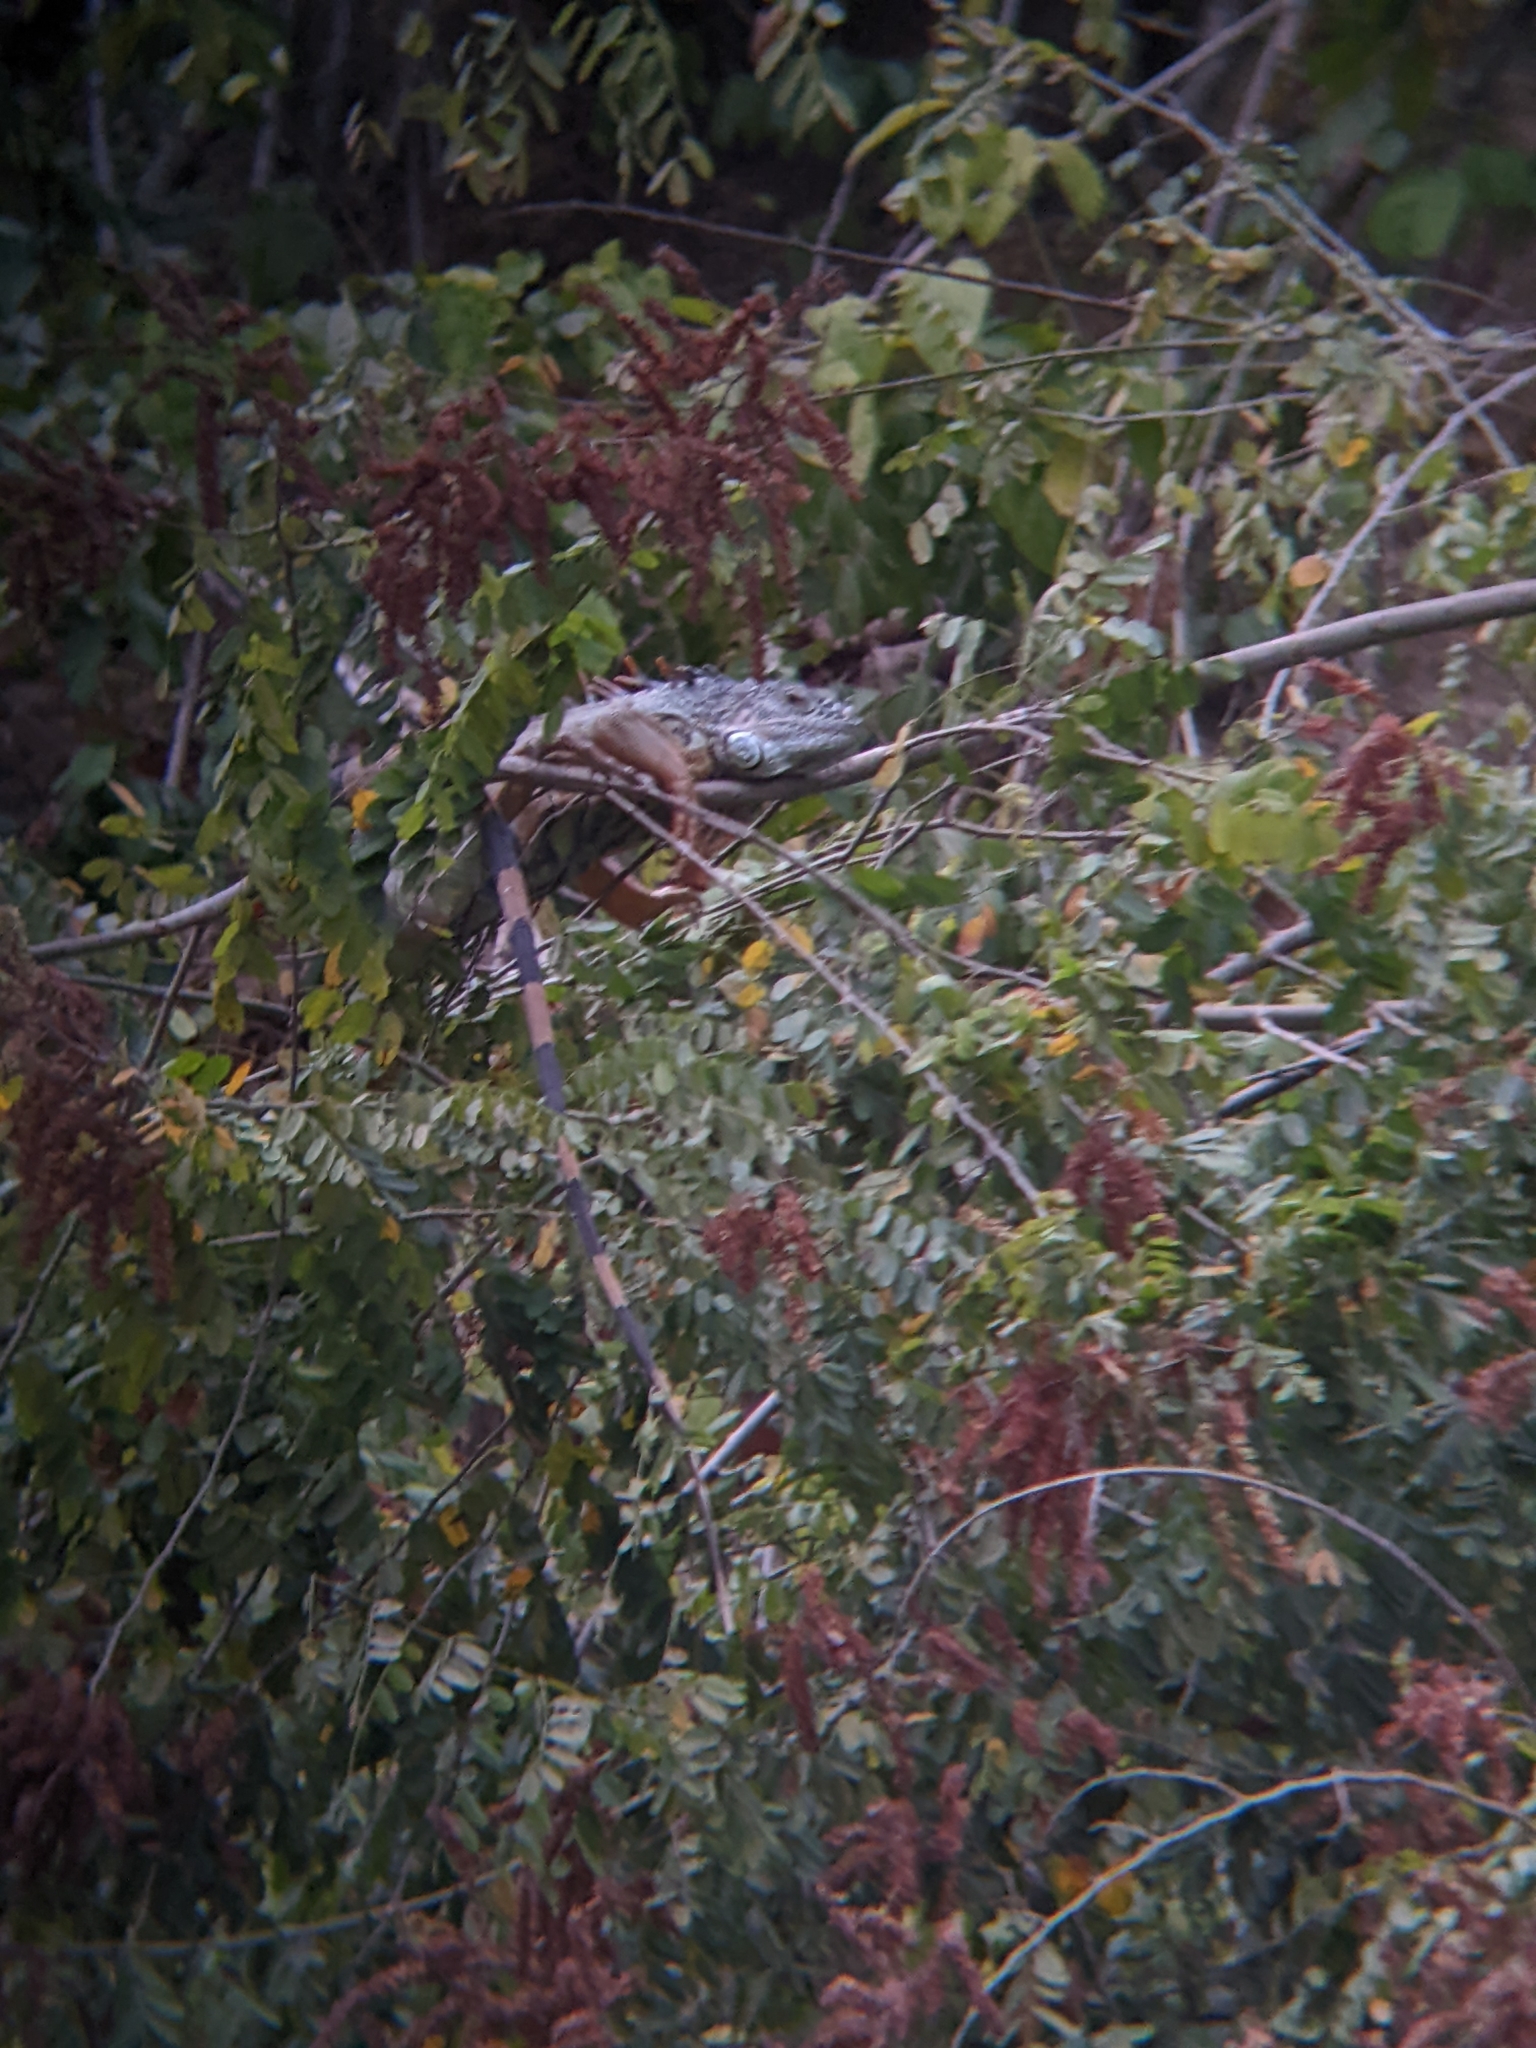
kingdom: Animalia
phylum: Chordata
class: Squamata
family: Iguanidae
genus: Iguana
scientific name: Iguana iguana
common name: Green iguana
